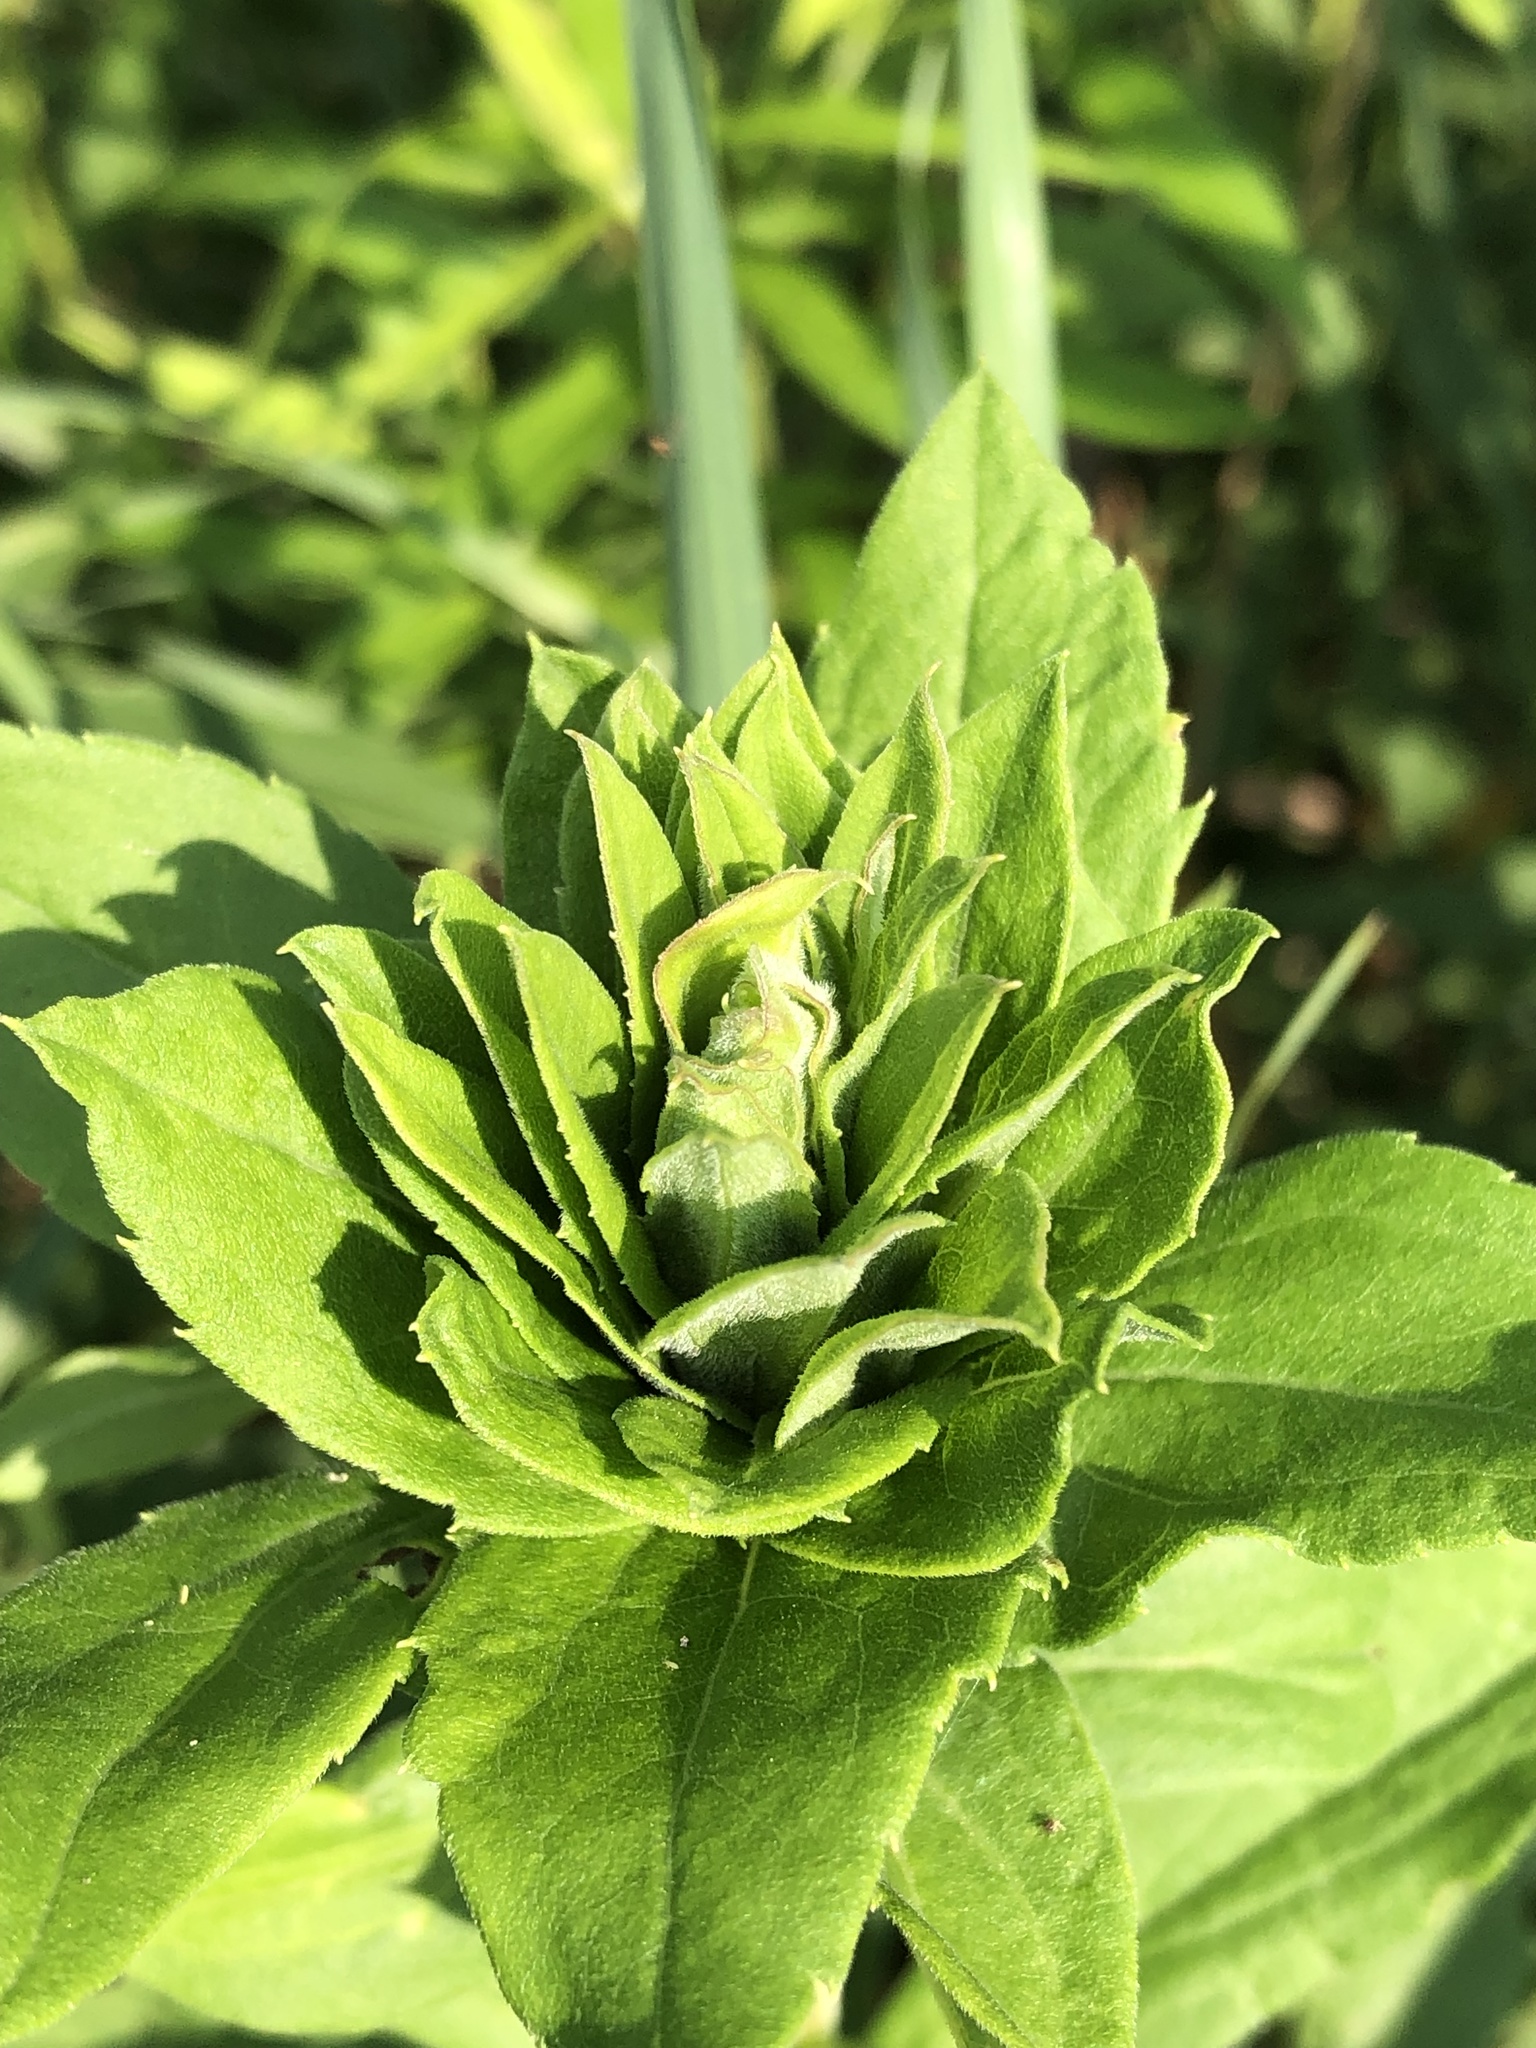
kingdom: Animalia
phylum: Arthropoda
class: Insecta
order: Diptera
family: Cecidomyiidae
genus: Rhopalomyia
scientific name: Rhopalomyia solidaginis
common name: Goldenrod bunch gall midge
